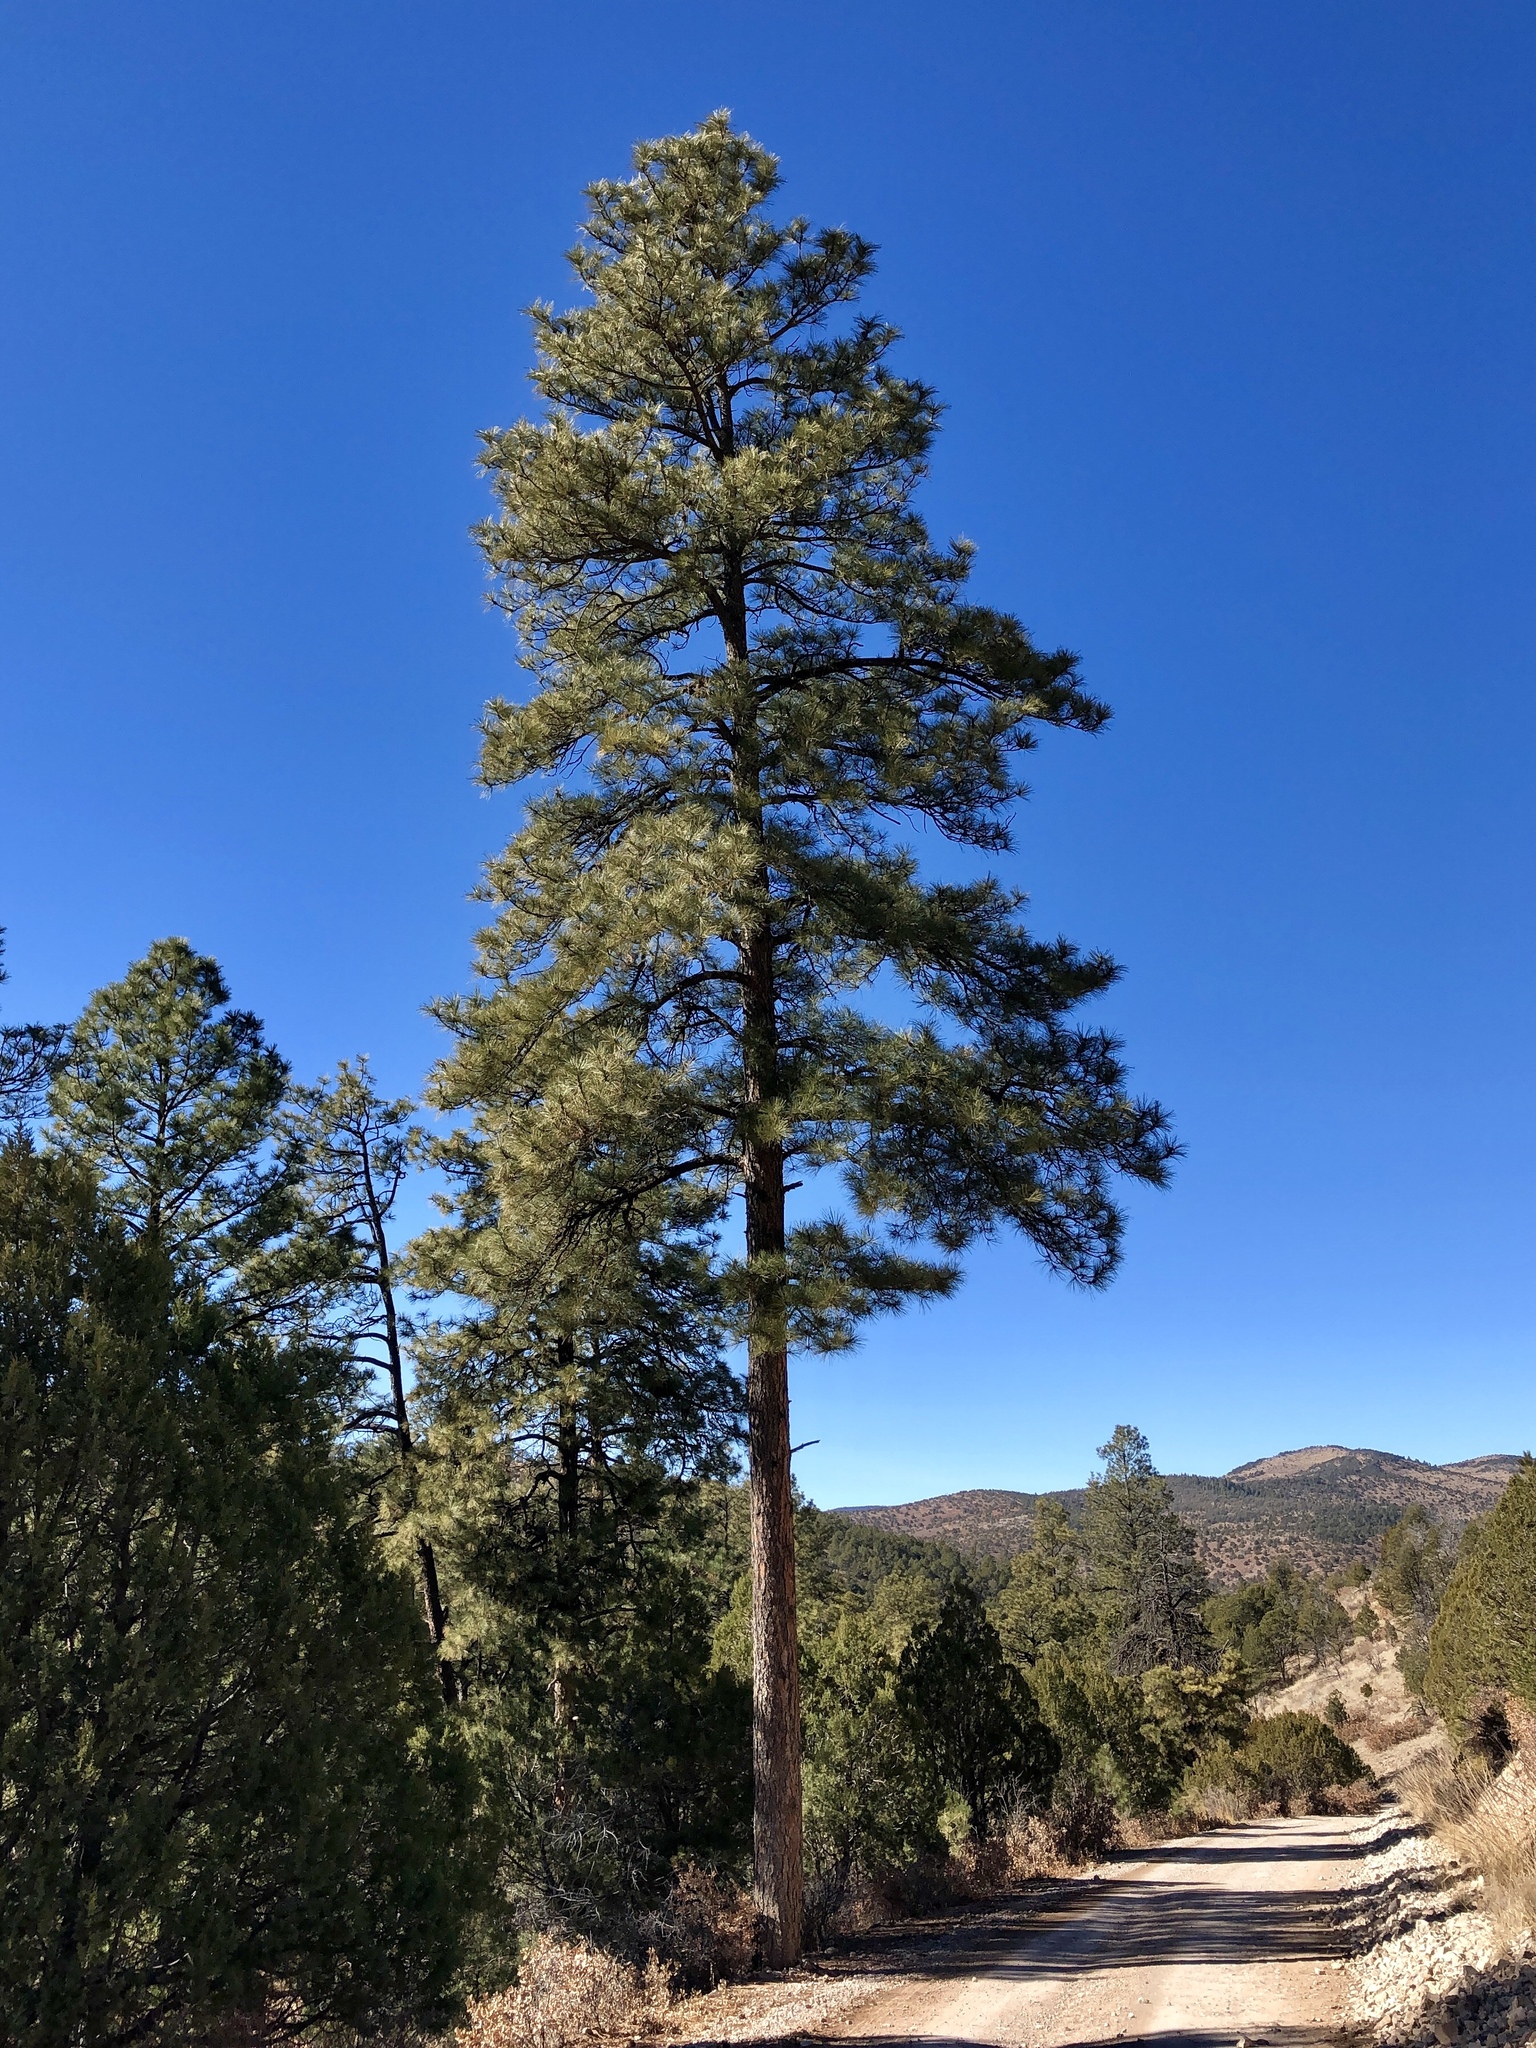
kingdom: Plantae
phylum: Tracheophyta
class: Pinopsida
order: Pinales
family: Pinaceae
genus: Pinus
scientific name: Pinus ponderosa
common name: Western yellow-pine
